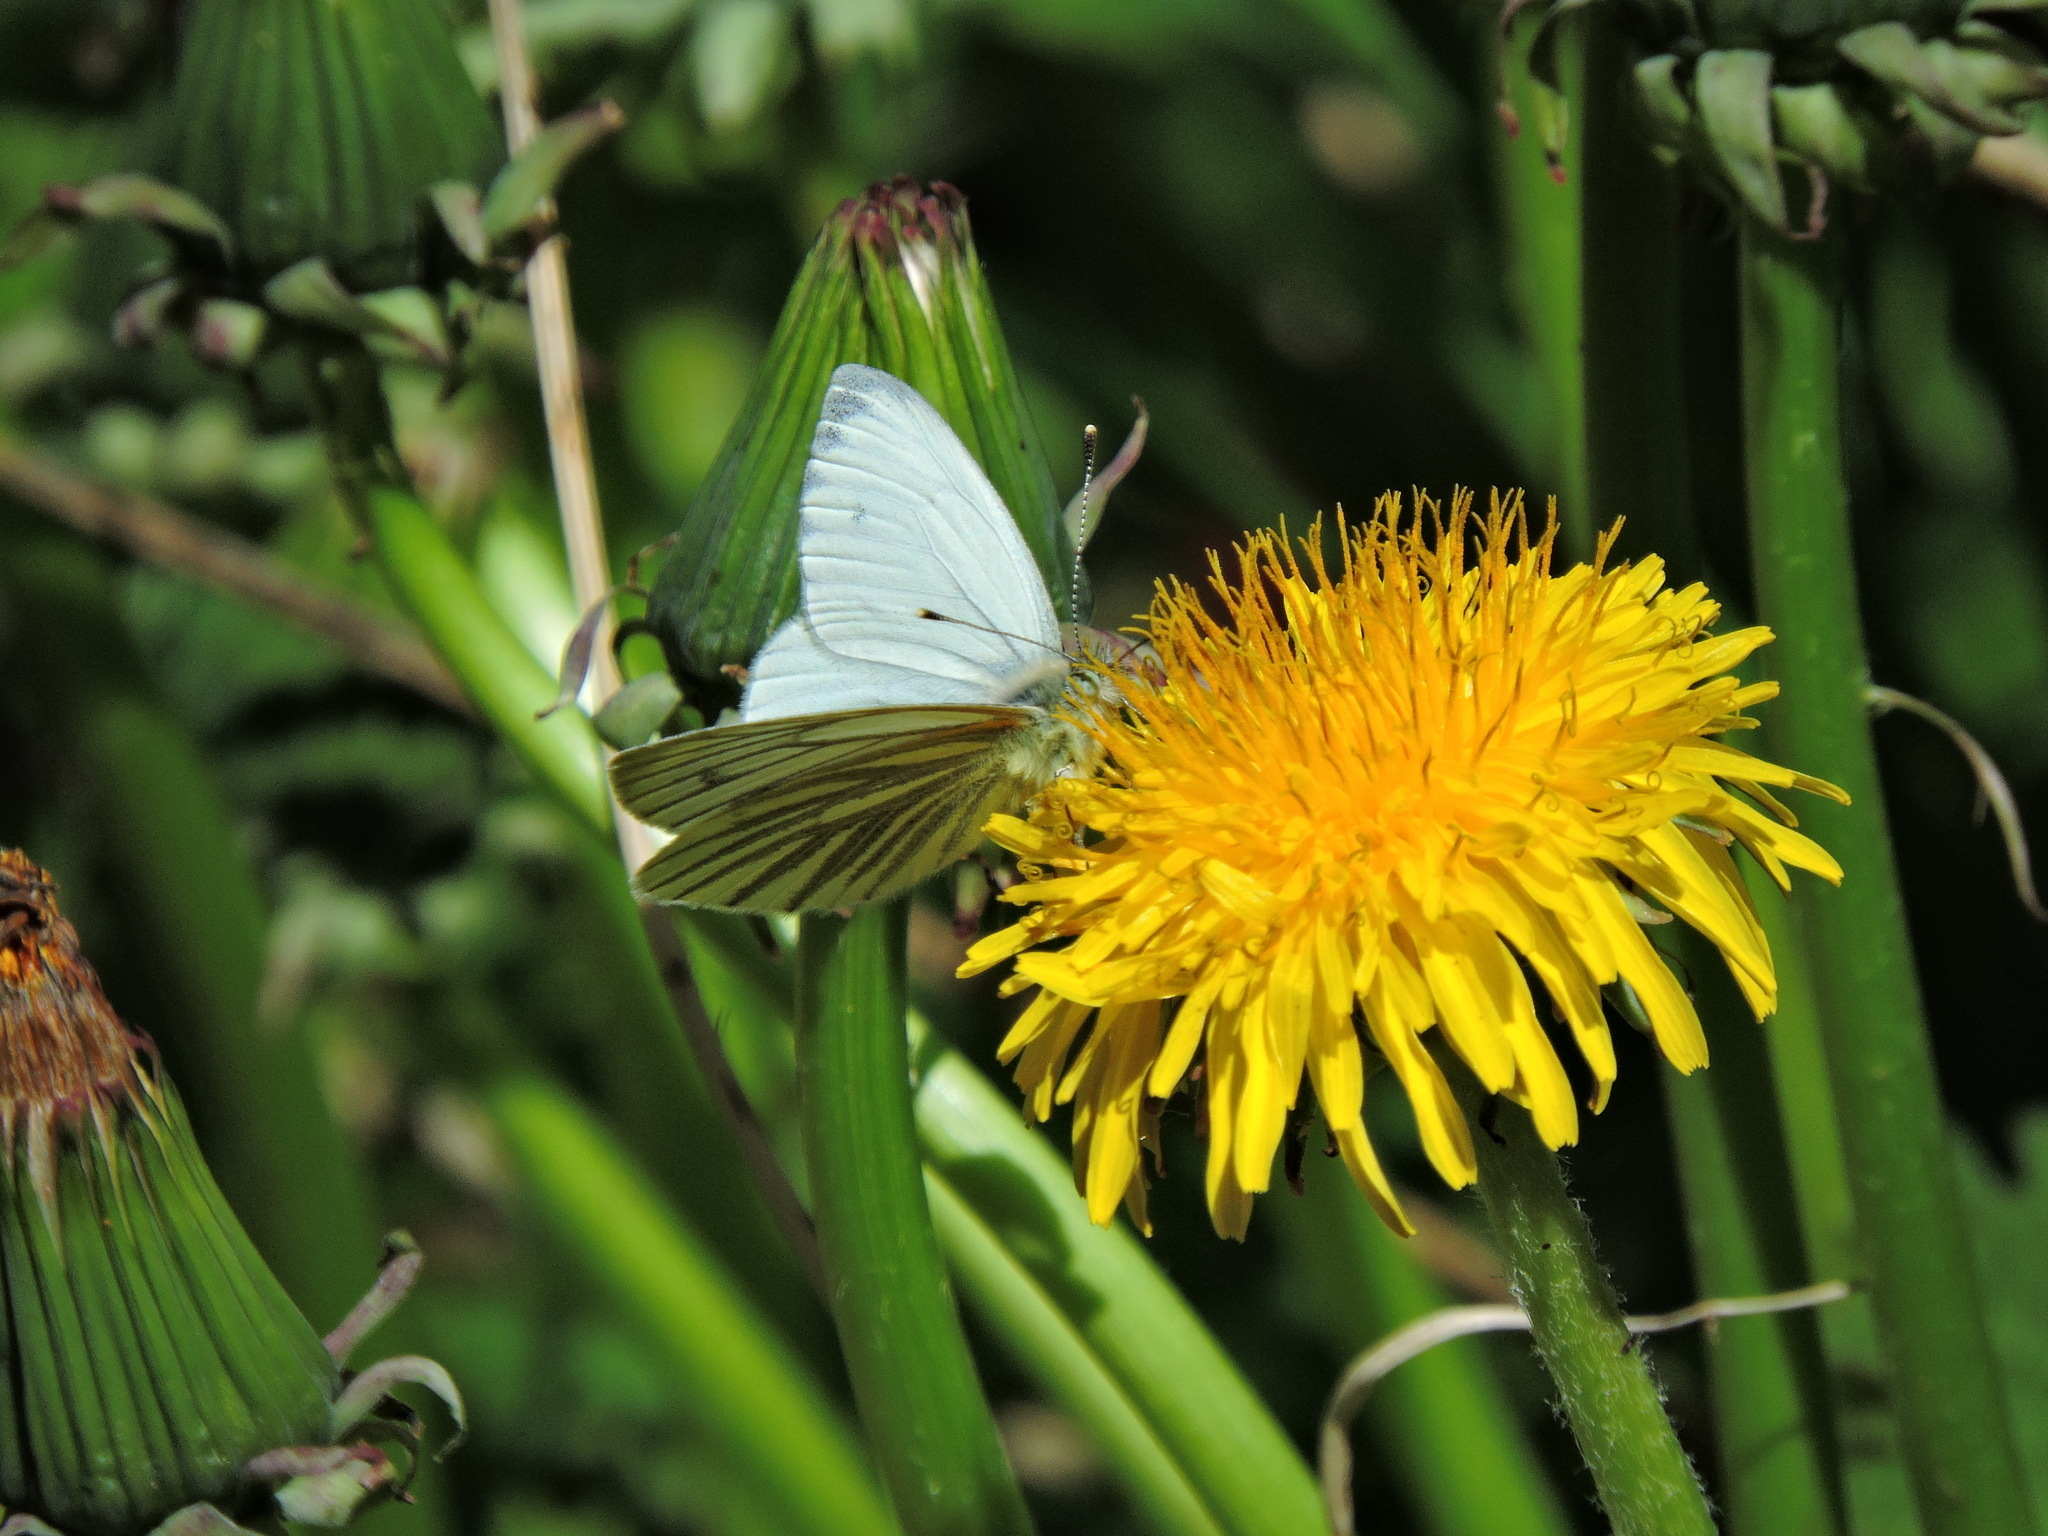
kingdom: Plantae
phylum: Tracheophyta
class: Magnoliopsida
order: Asterales
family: Asteraceae
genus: Taraxacum
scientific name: Taraxacum officinale
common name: Common dandelion
